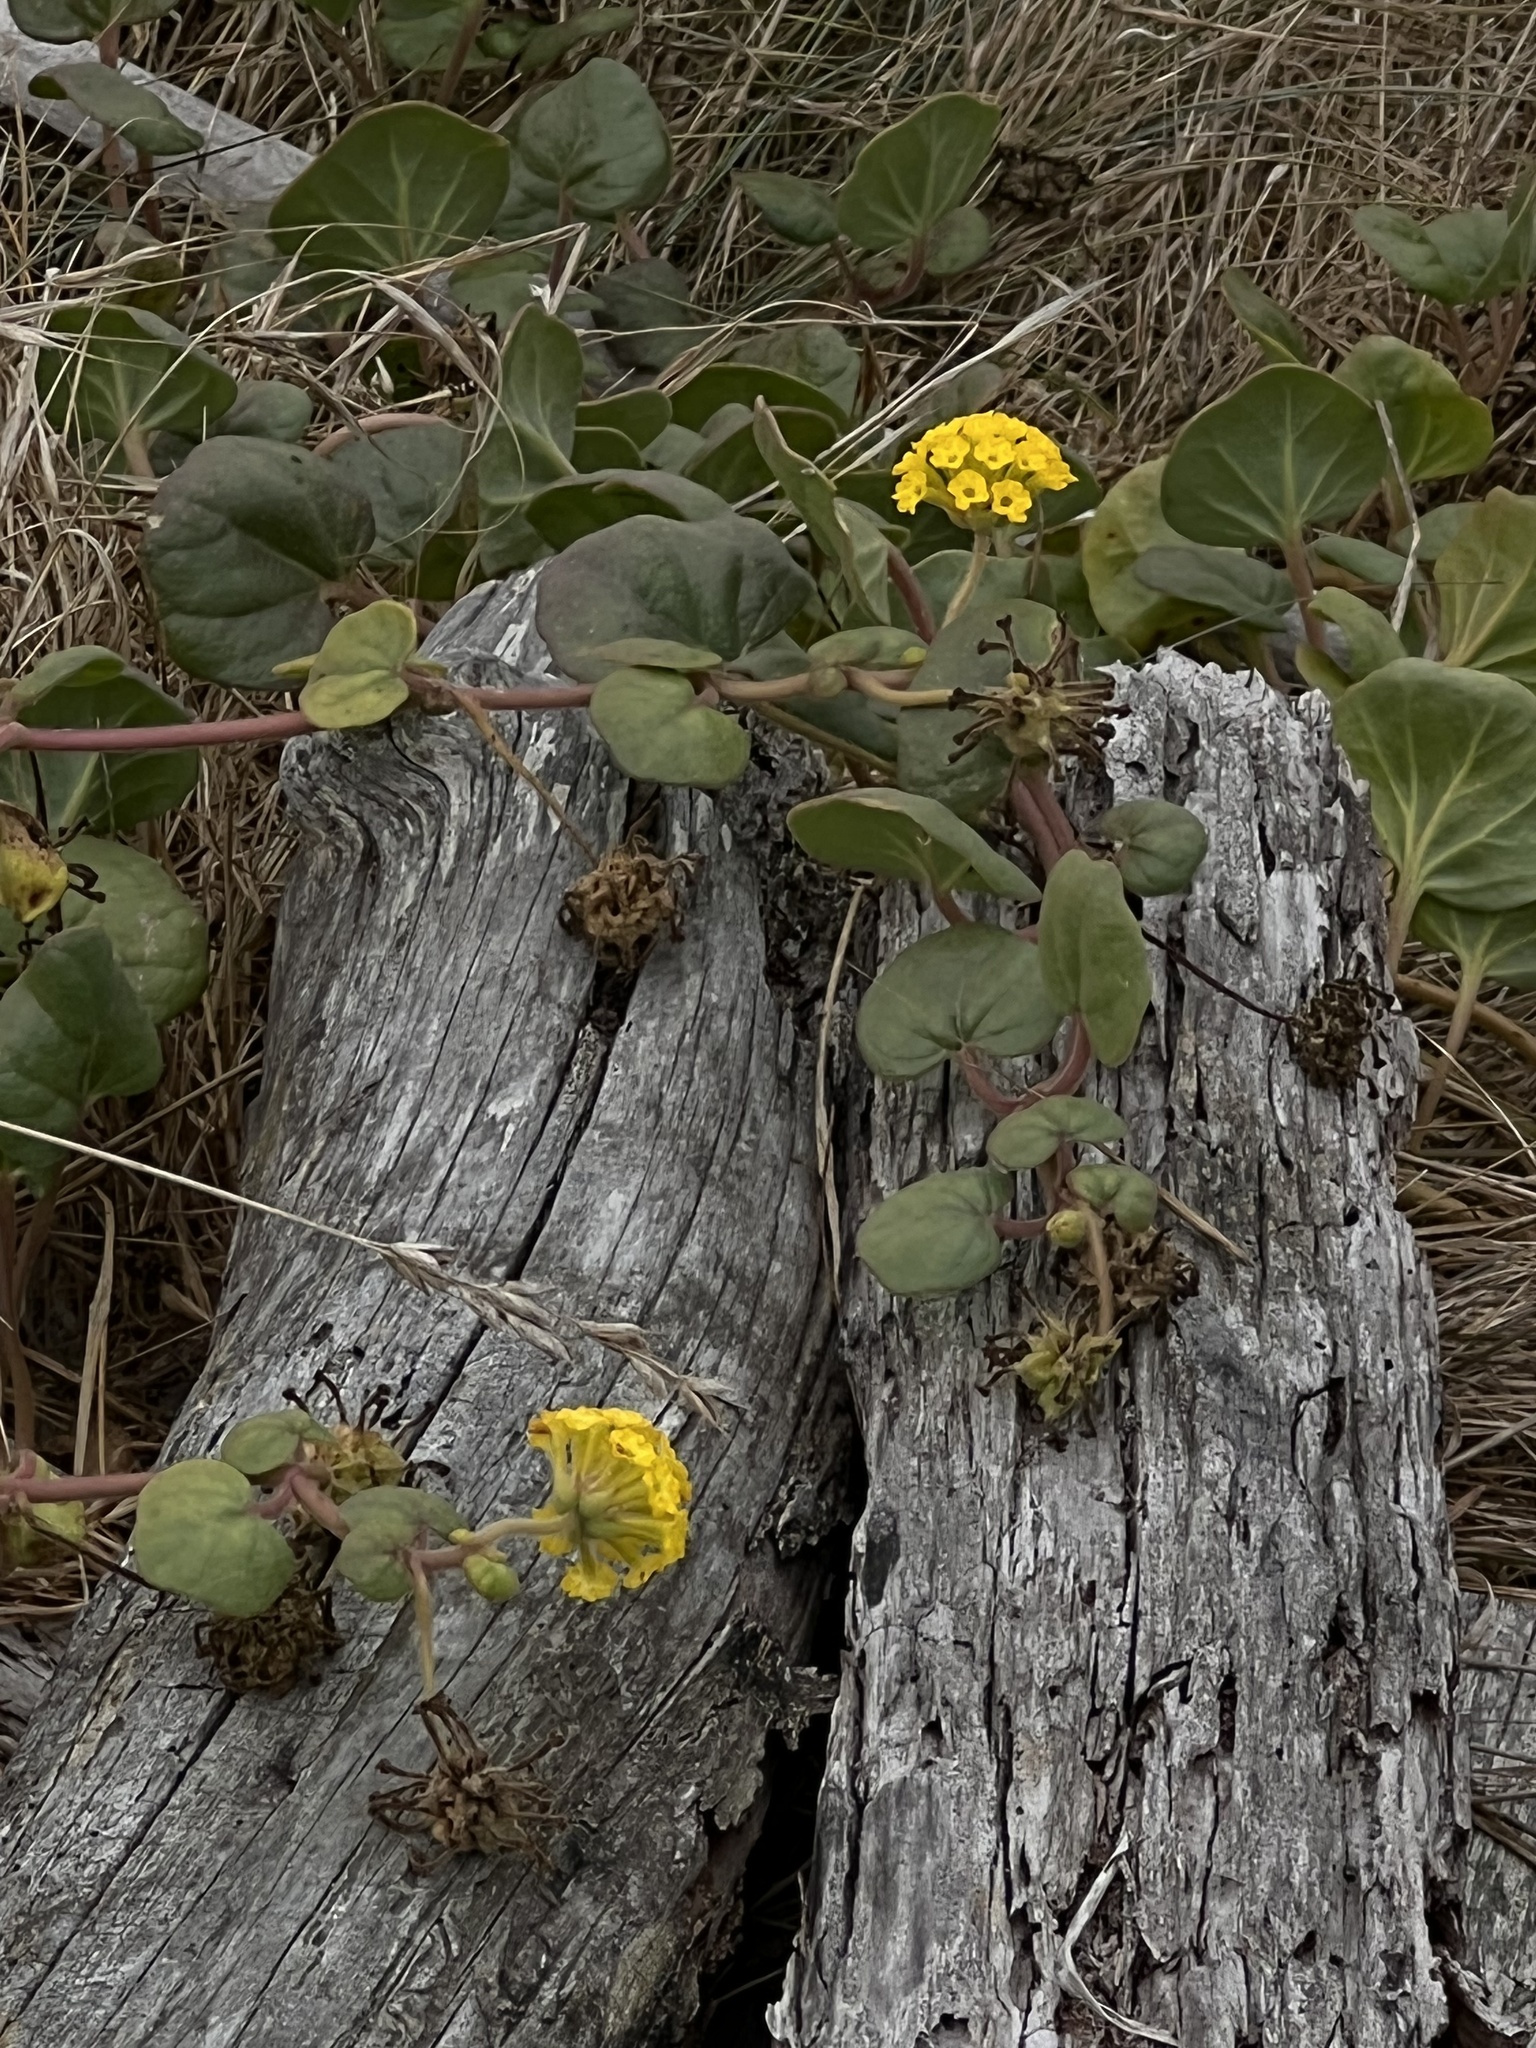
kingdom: Plantae
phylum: Tracheophyta
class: Magnoliopsida
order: Caryophyllales
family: Nyctaginaceae
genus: Abronia
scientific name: Abronia latifolia
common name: Yellow sand-verbena
